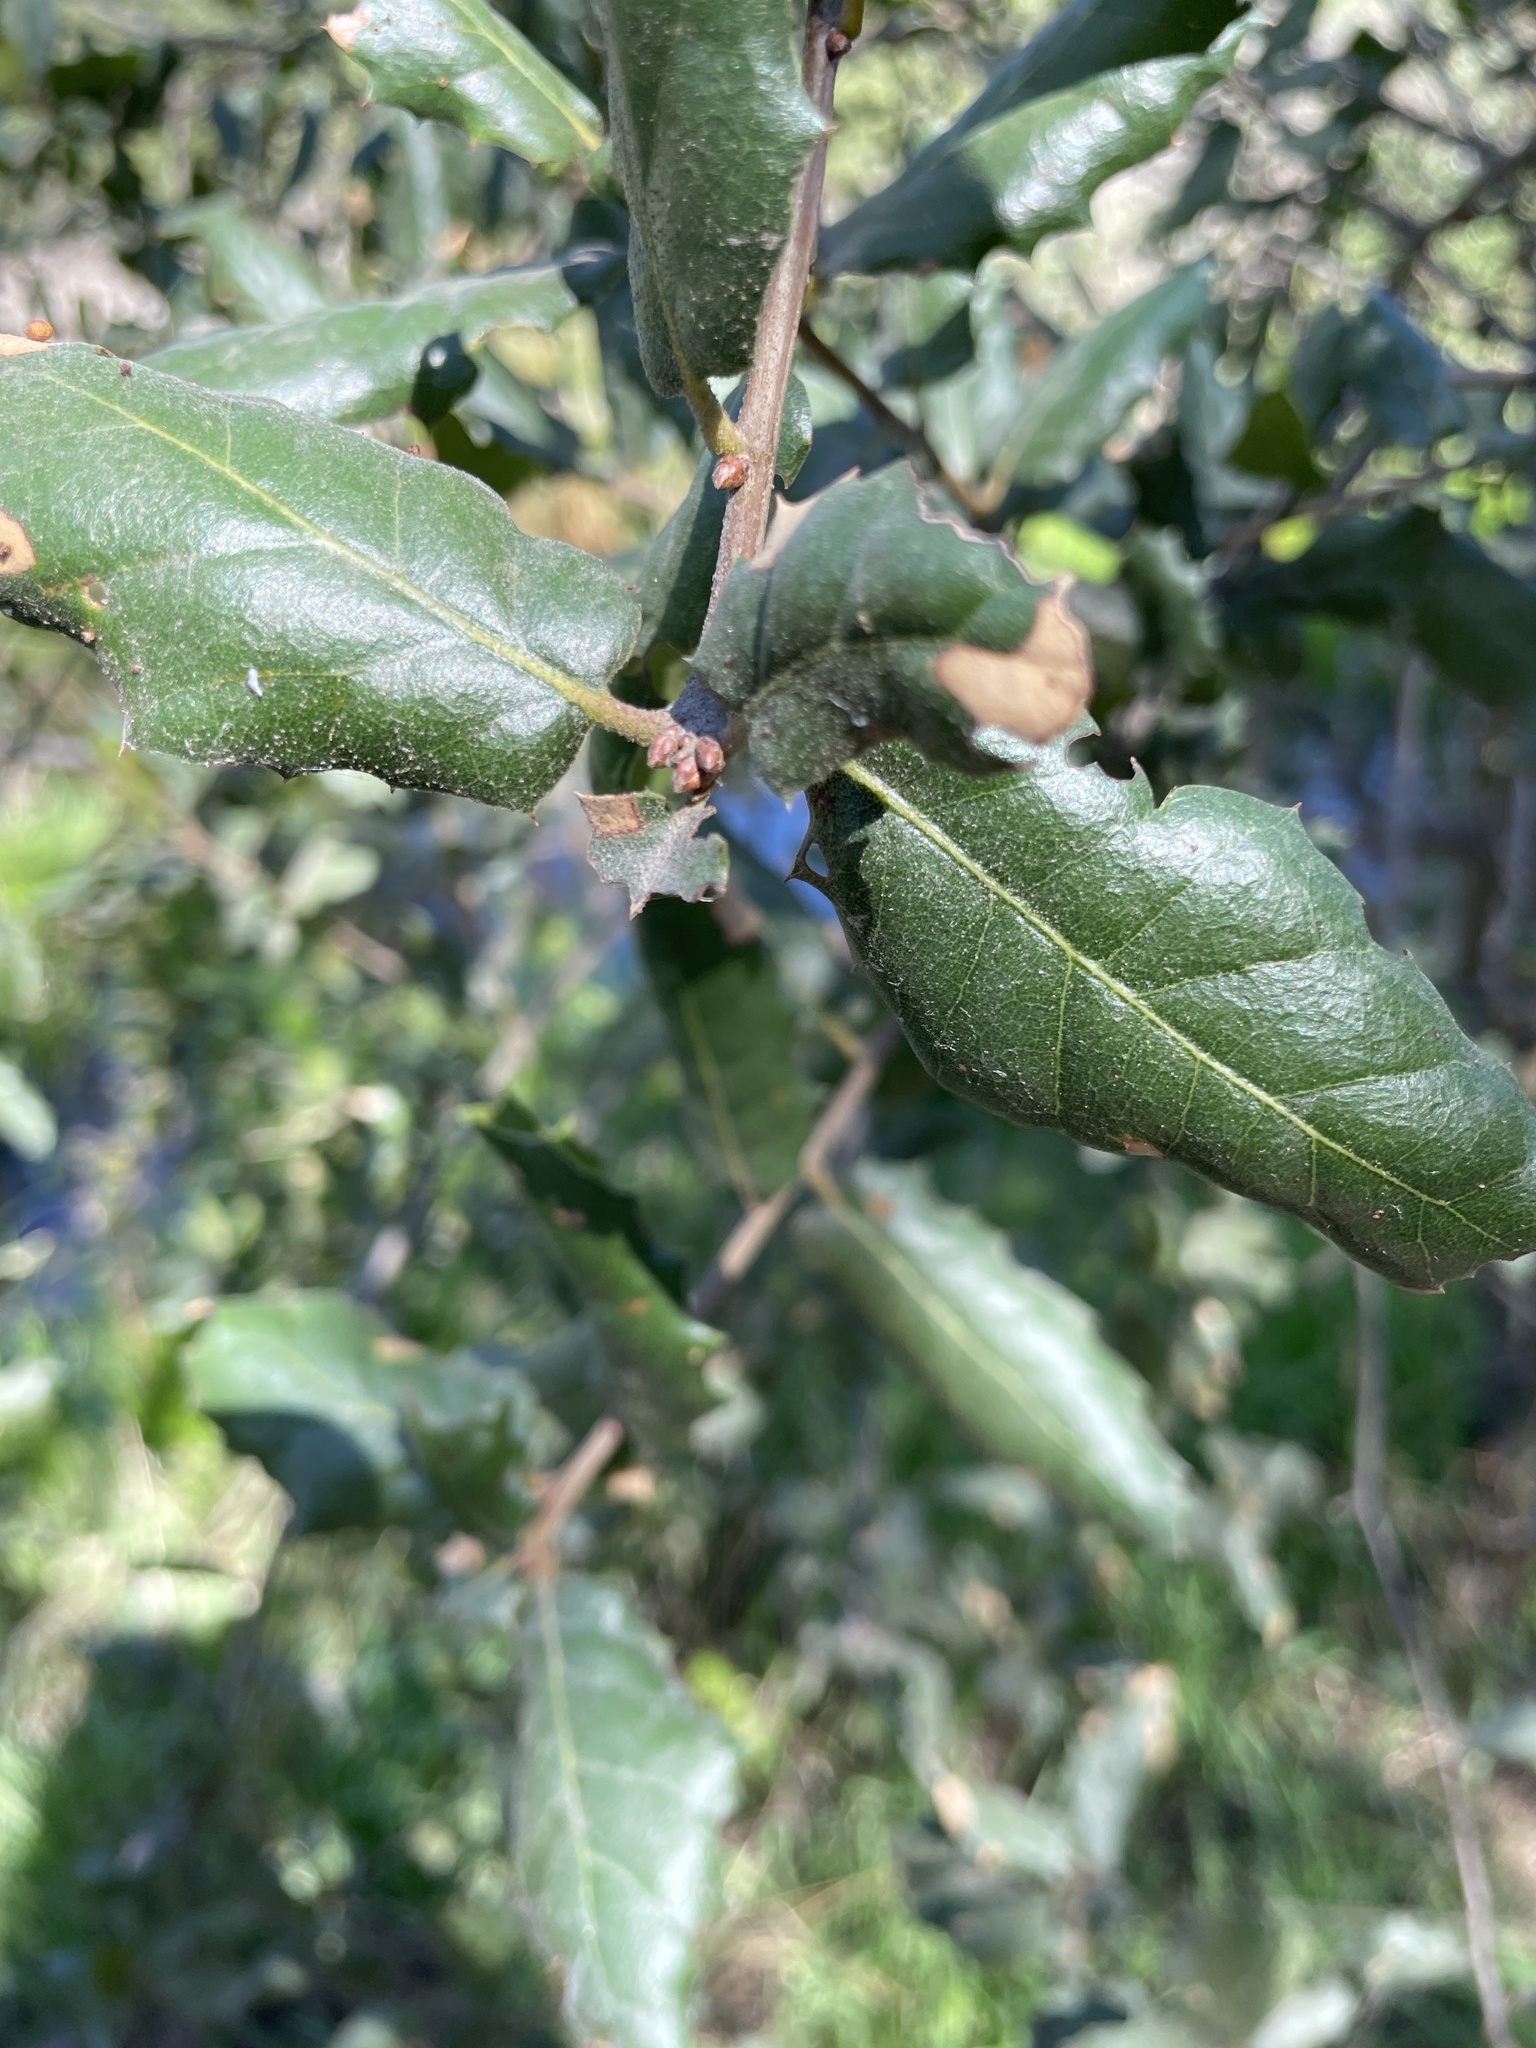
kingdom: Plantae
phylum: Tracheophyta
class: Magnoliopsida
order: Fagales
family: Fagaceae
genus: Quercus
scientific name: Quercus agrifolia
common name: California live oak
